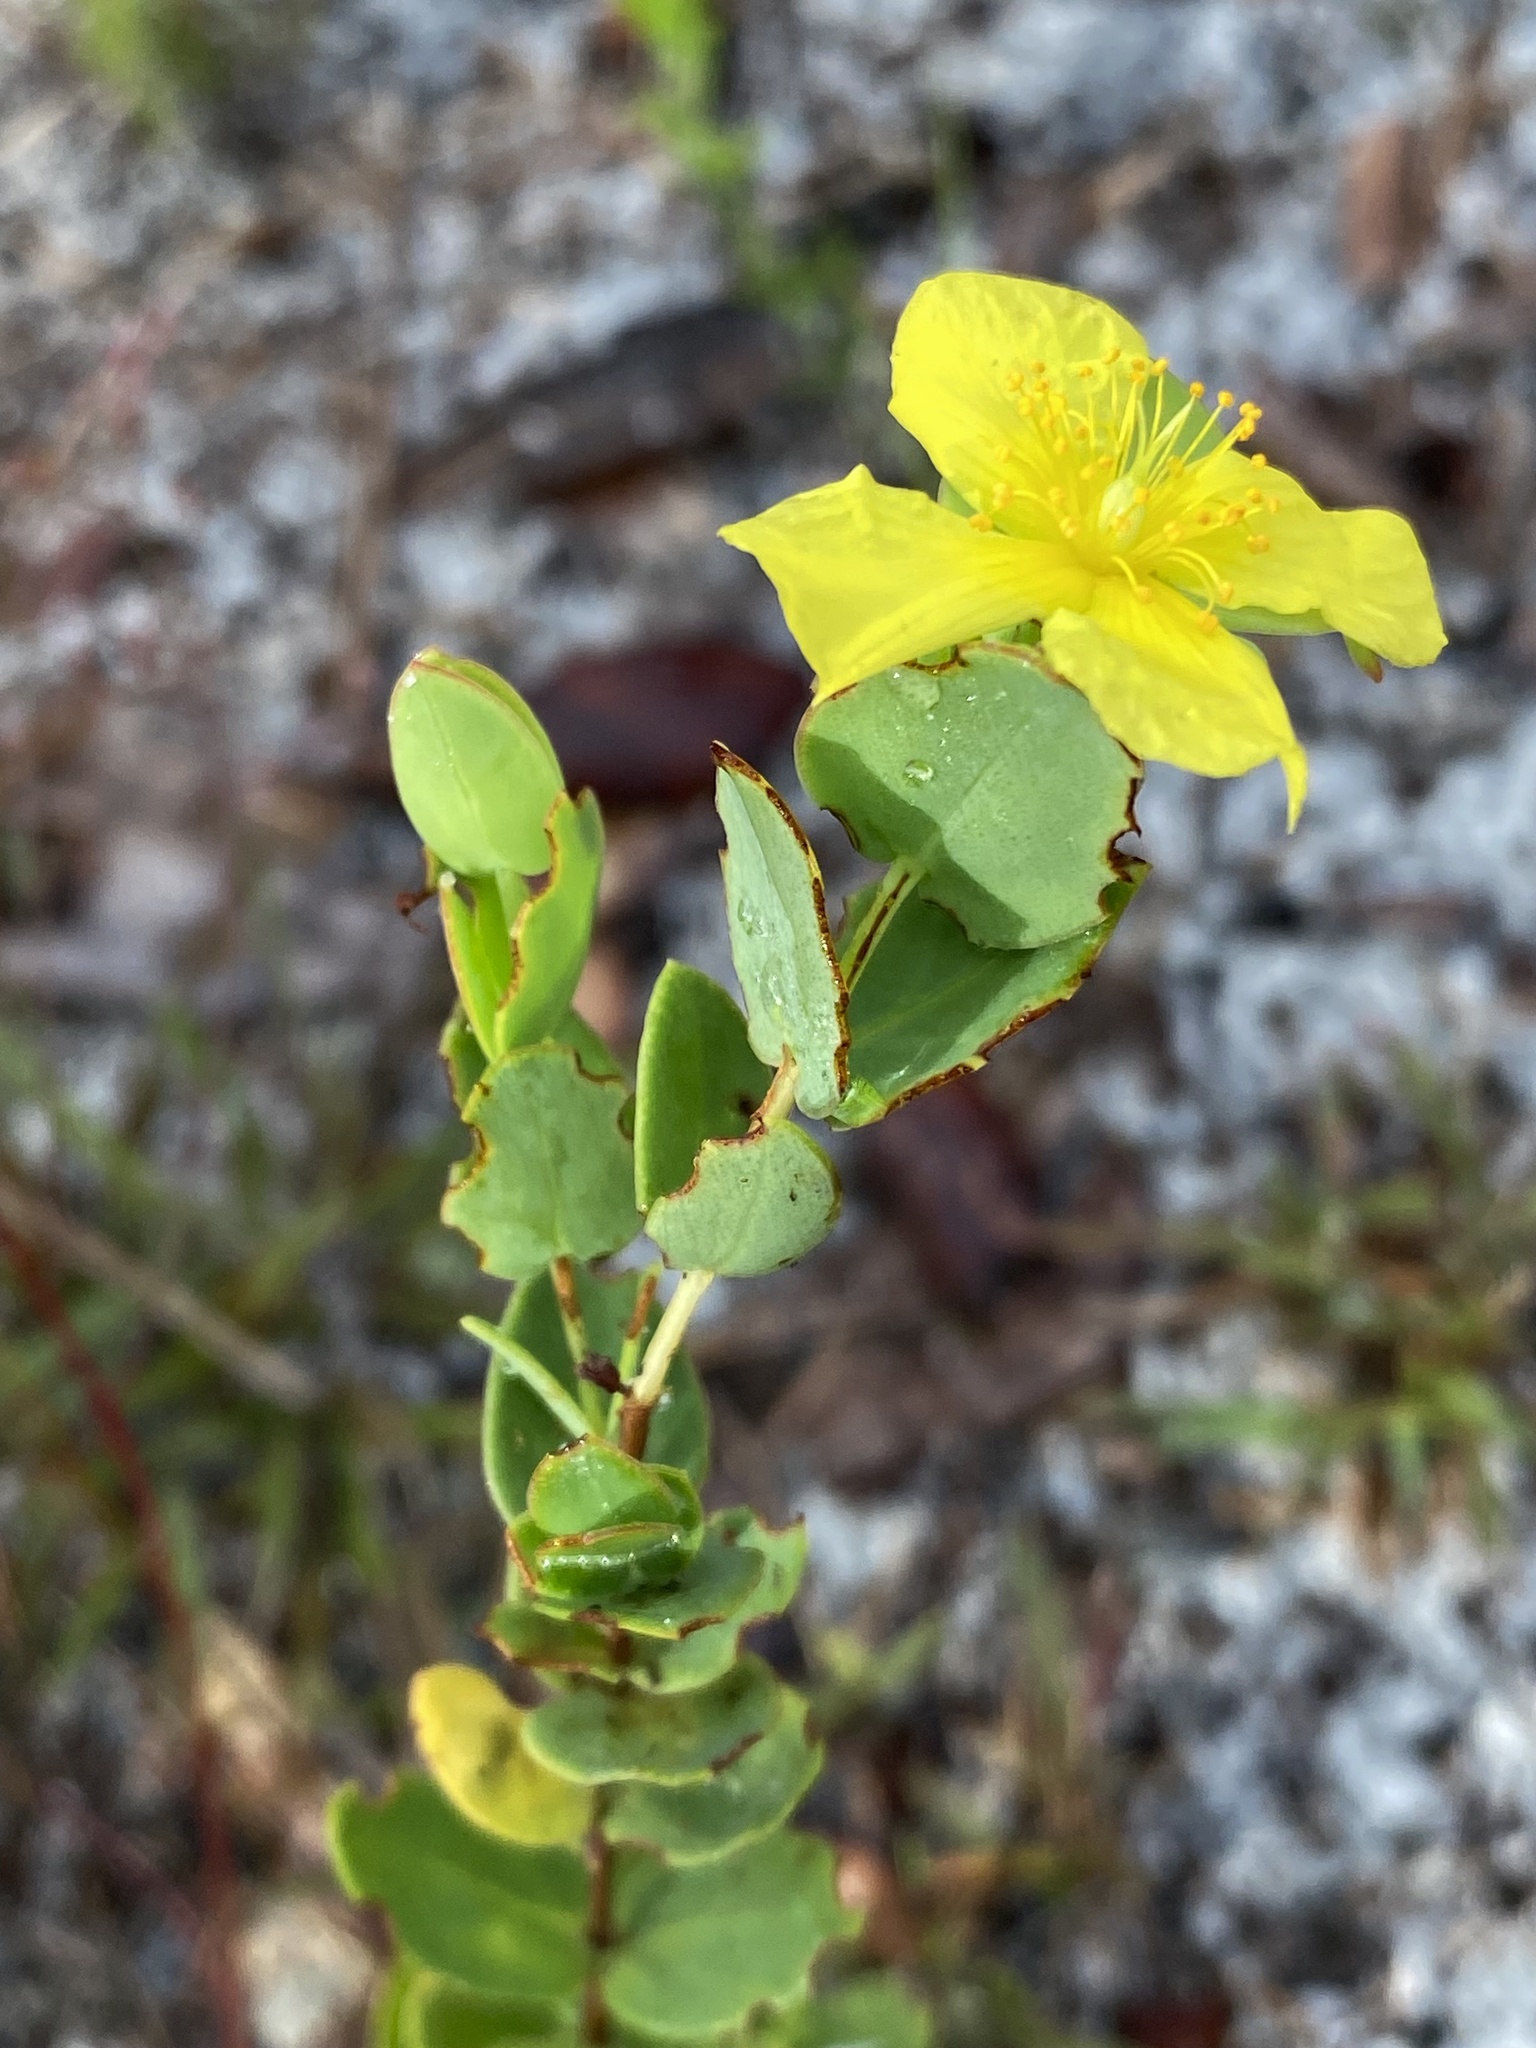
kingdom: Plantae
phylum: Tracheophyta
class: Magnoliopsida
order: Malpighiales
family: Hypericaceae
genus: Hypericum
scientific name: Hypericum tetrapetalum
